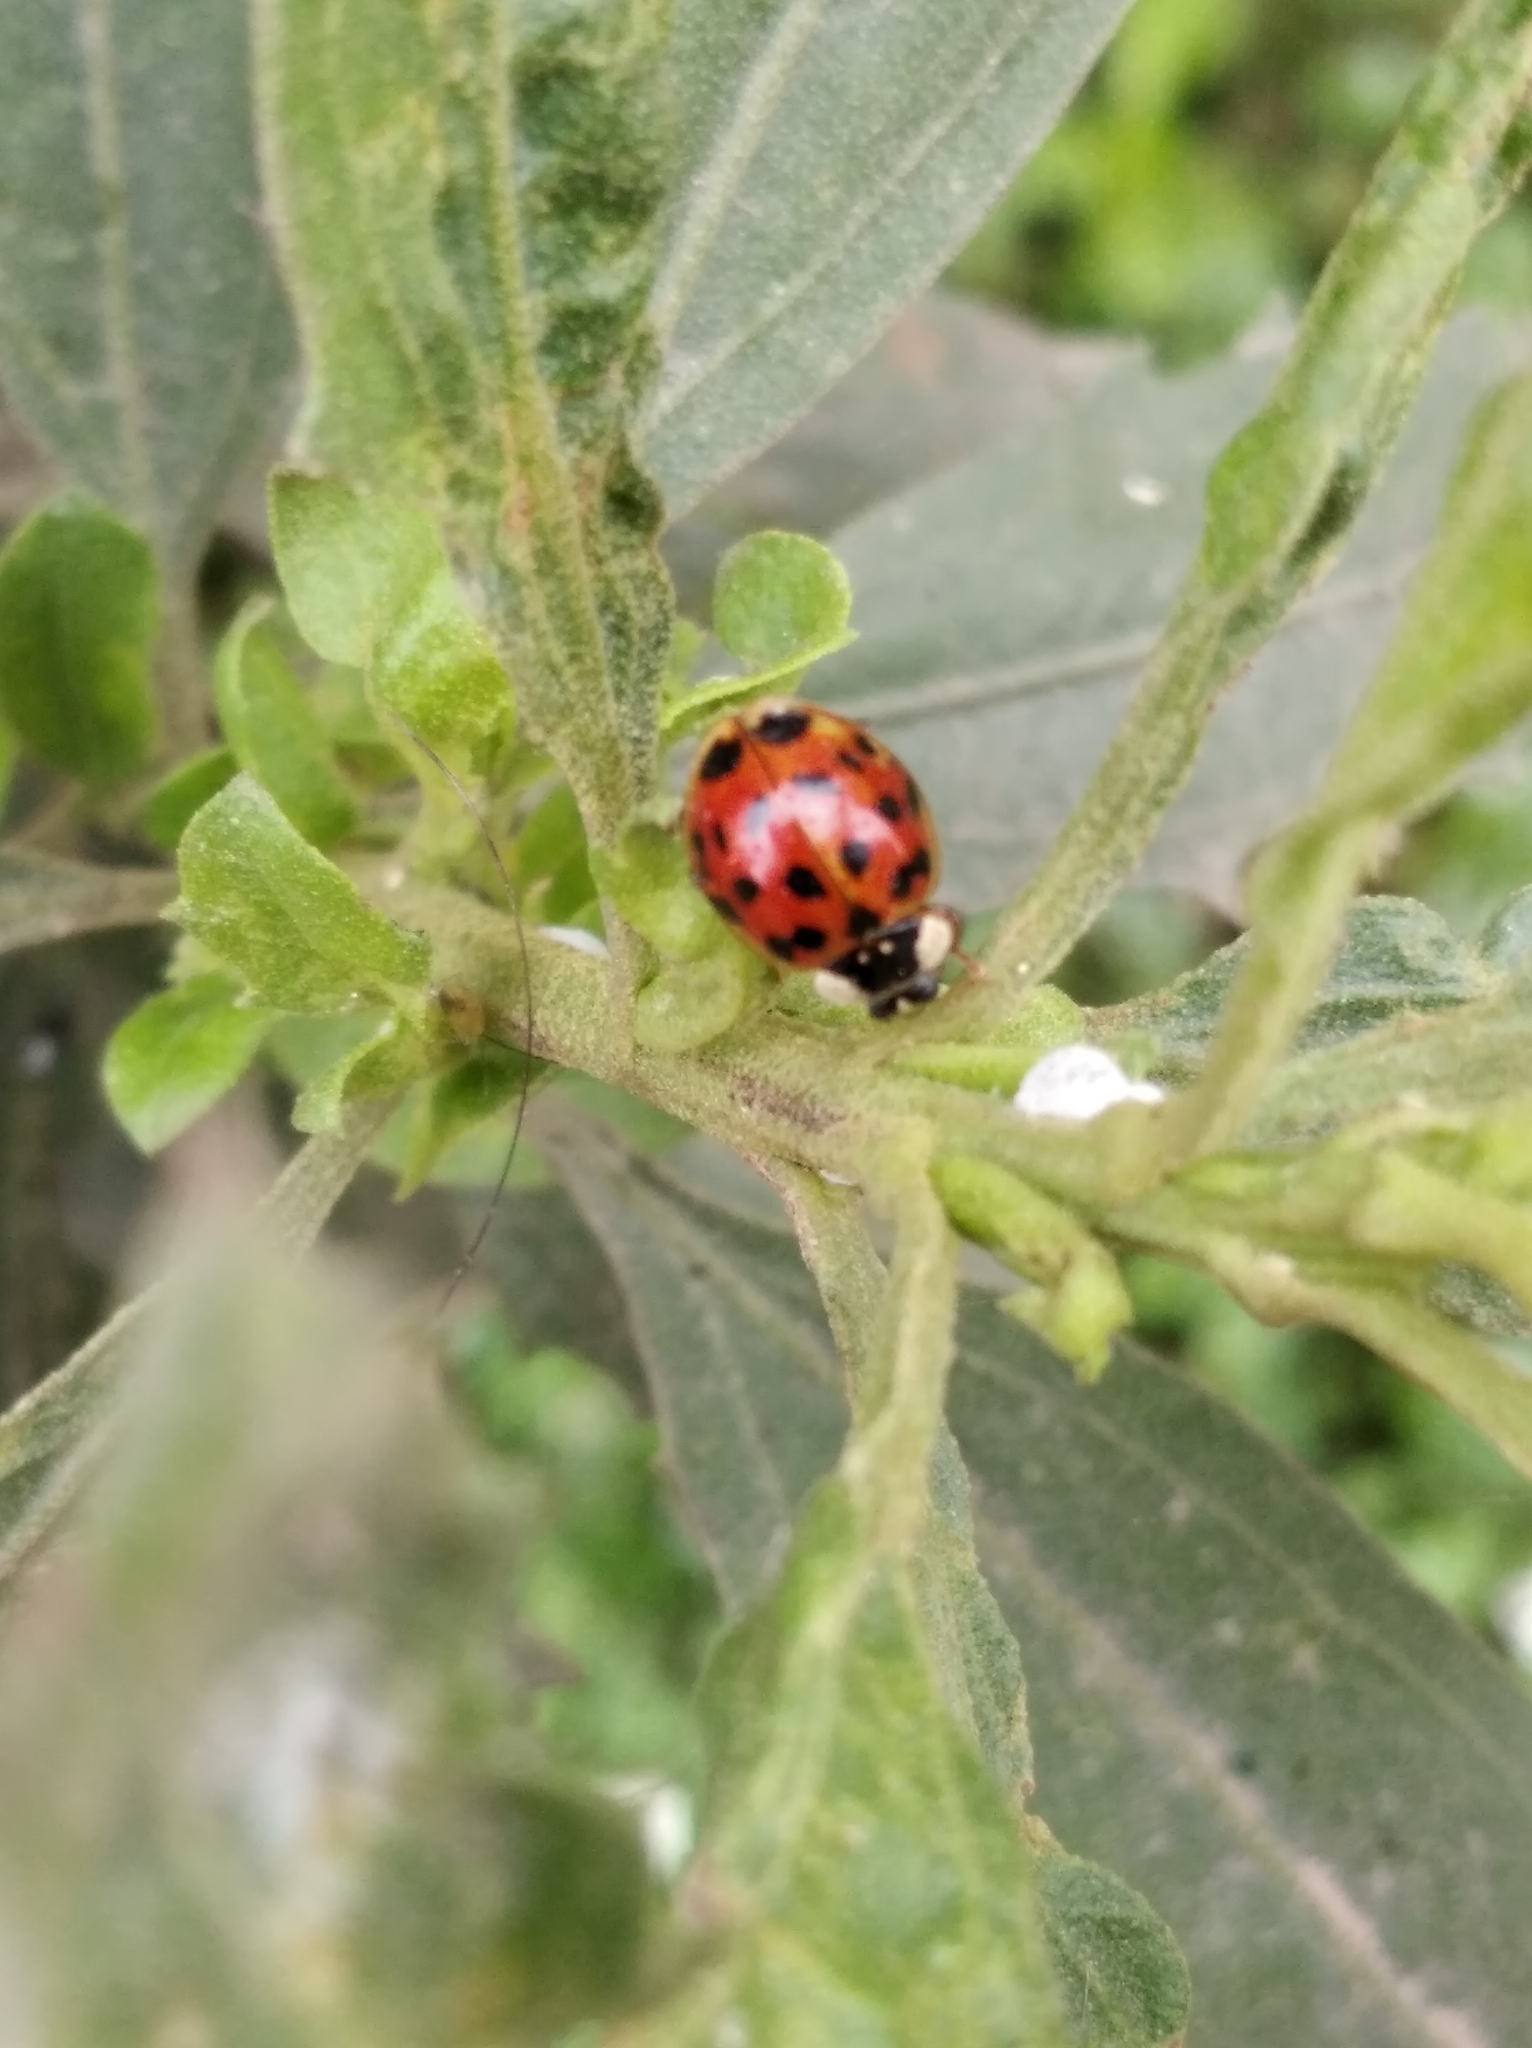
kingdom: Animalia
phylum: Arthropoda
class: Insecta
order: Coleoptera
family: Coccinellidae
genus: Harmonia
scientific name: Harmonia axyridis
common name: Harlequin ladybird
